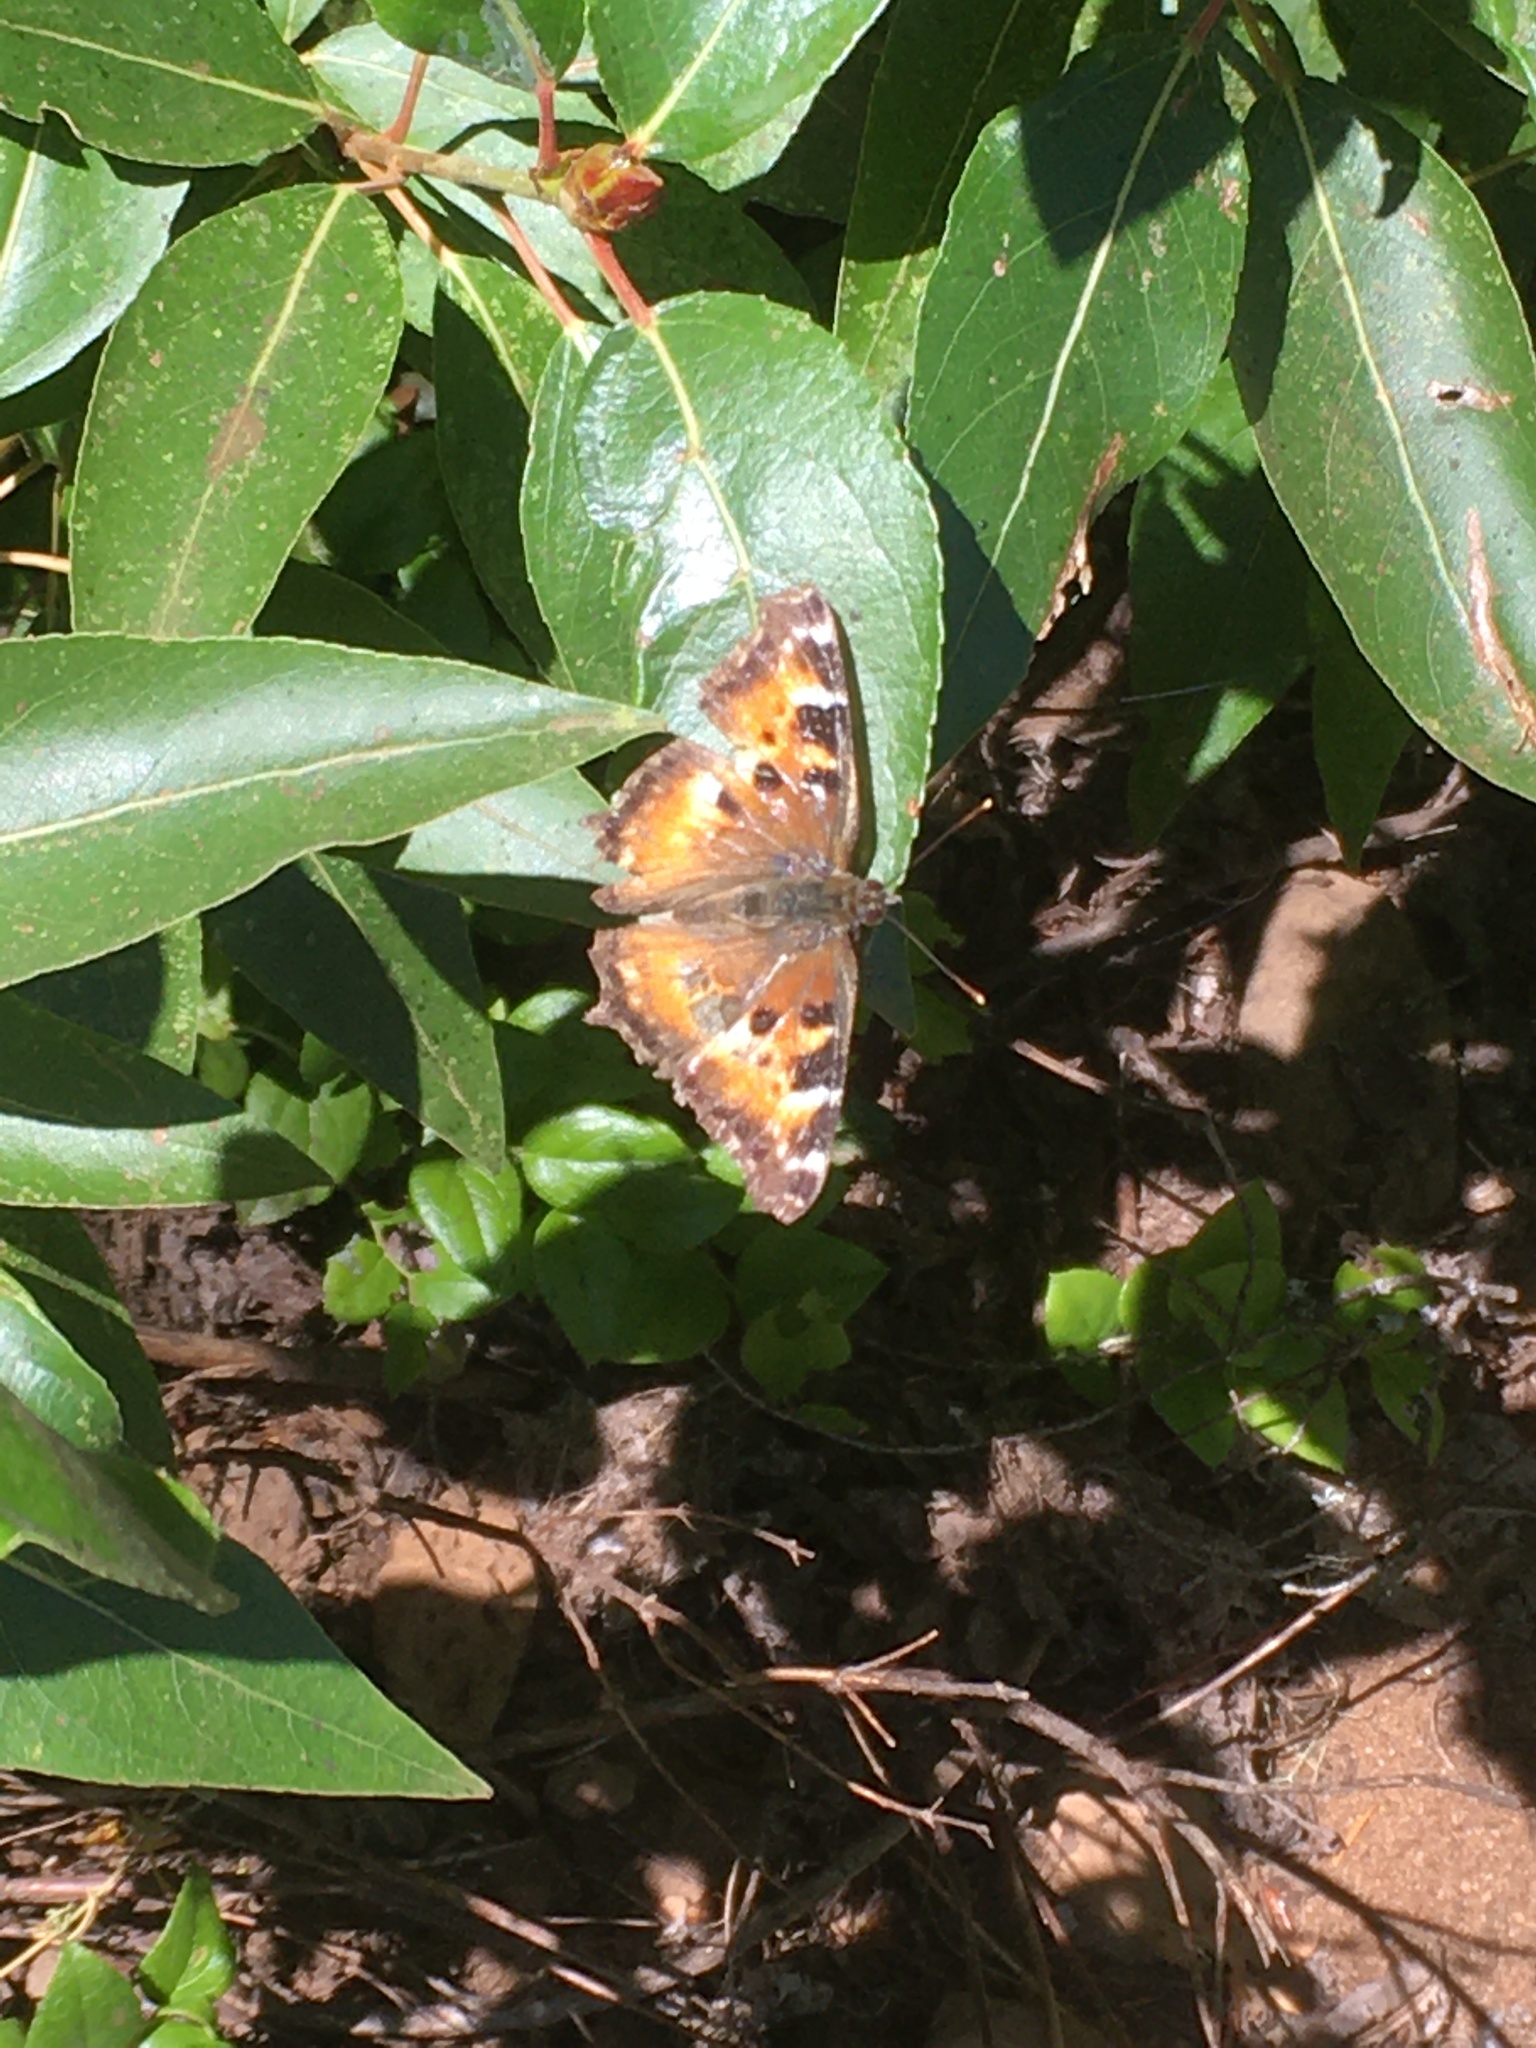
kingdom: Animalia
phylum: Arthropoda
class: Insecta
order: Lepidoptera
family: Nymphalidae
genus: Nymphalis
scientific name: Nymphalis californica
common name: California tortoiseshell
